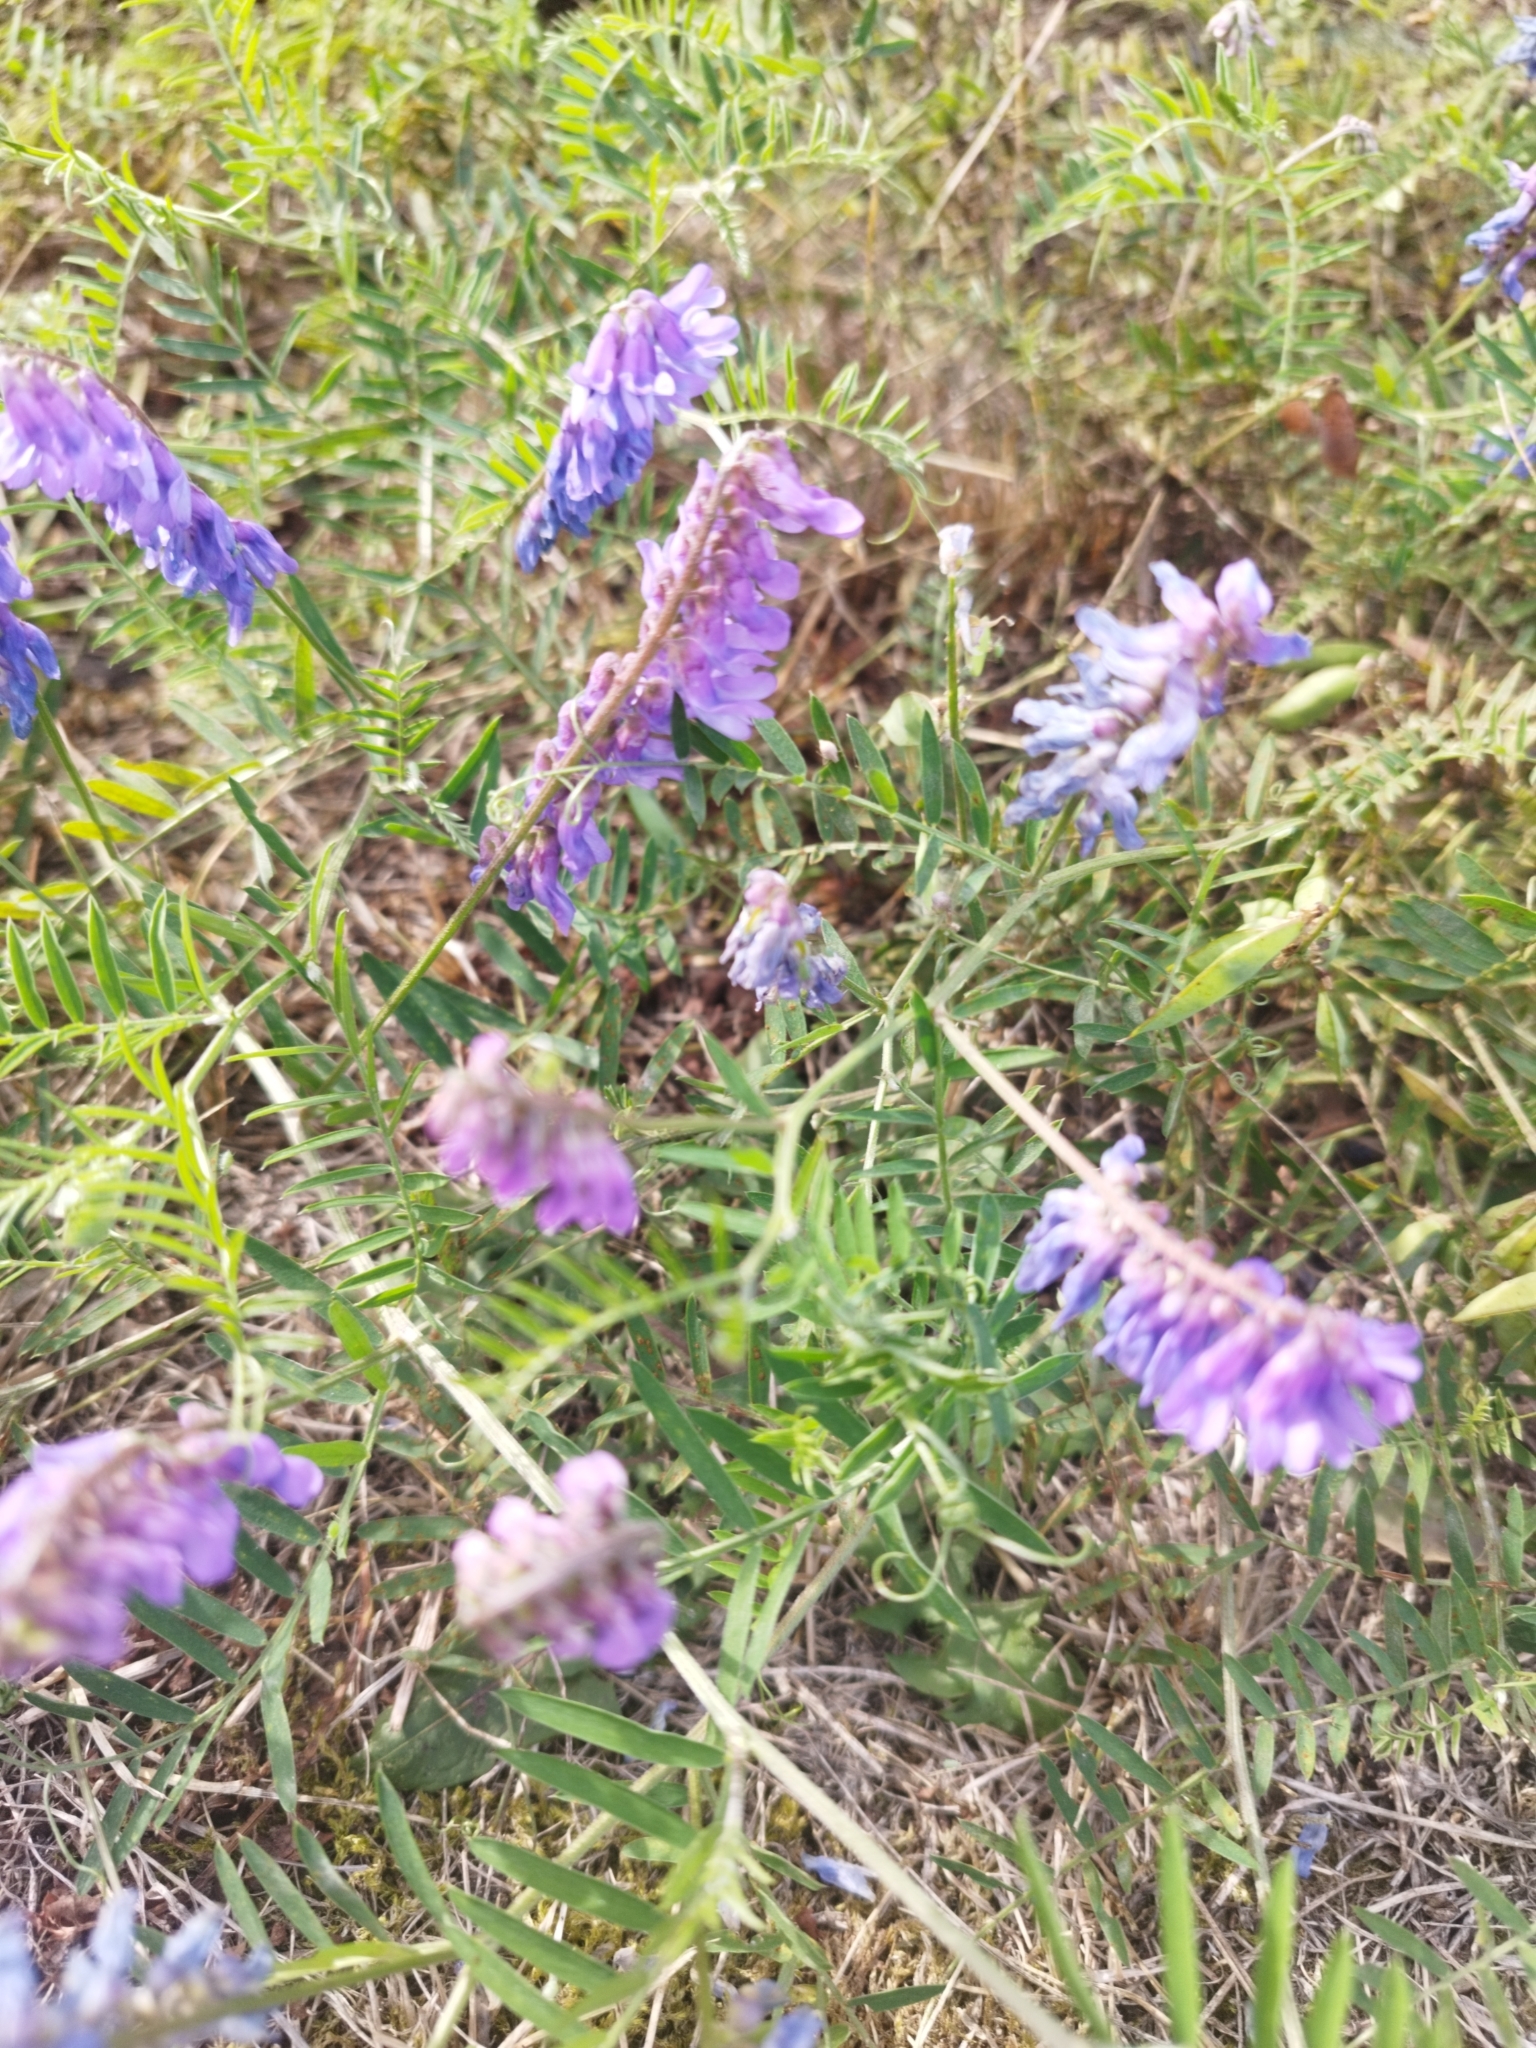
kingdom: Plantae
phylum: Tracheophyta
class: Magnoliopsida
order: Fabales
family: Fabaceae
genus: Vicia
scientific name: Vicia cracca
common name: Bird vetch
